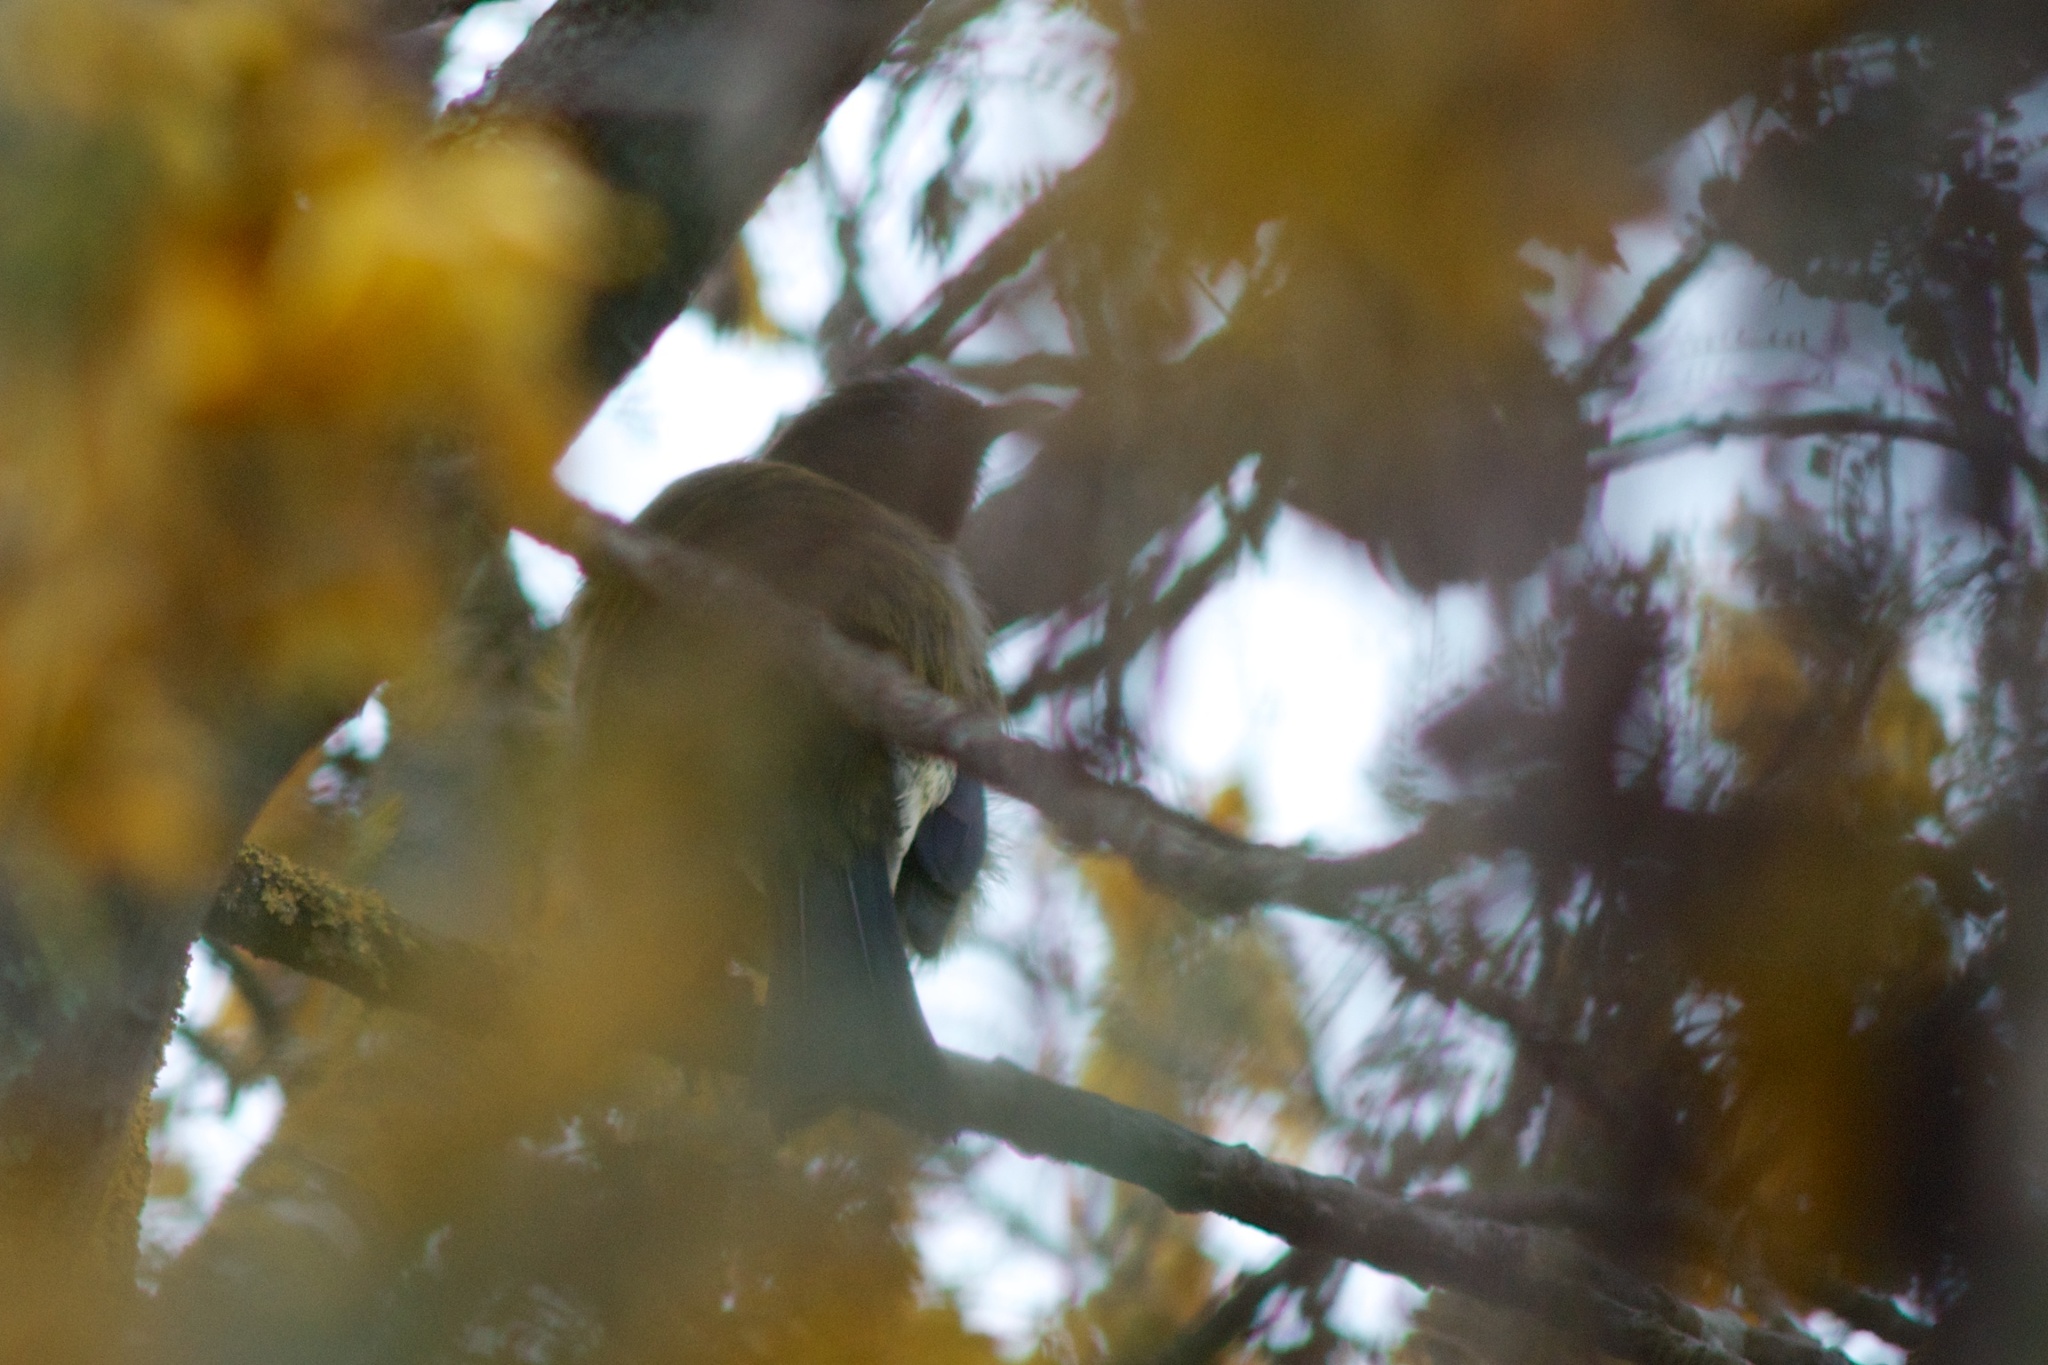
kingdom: Animalia
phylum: Chordata
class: Aves
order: Passeriformes
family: Meliphagidae
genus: Anthornis
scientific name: Anthornis melanura
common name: New zealand bellbird
